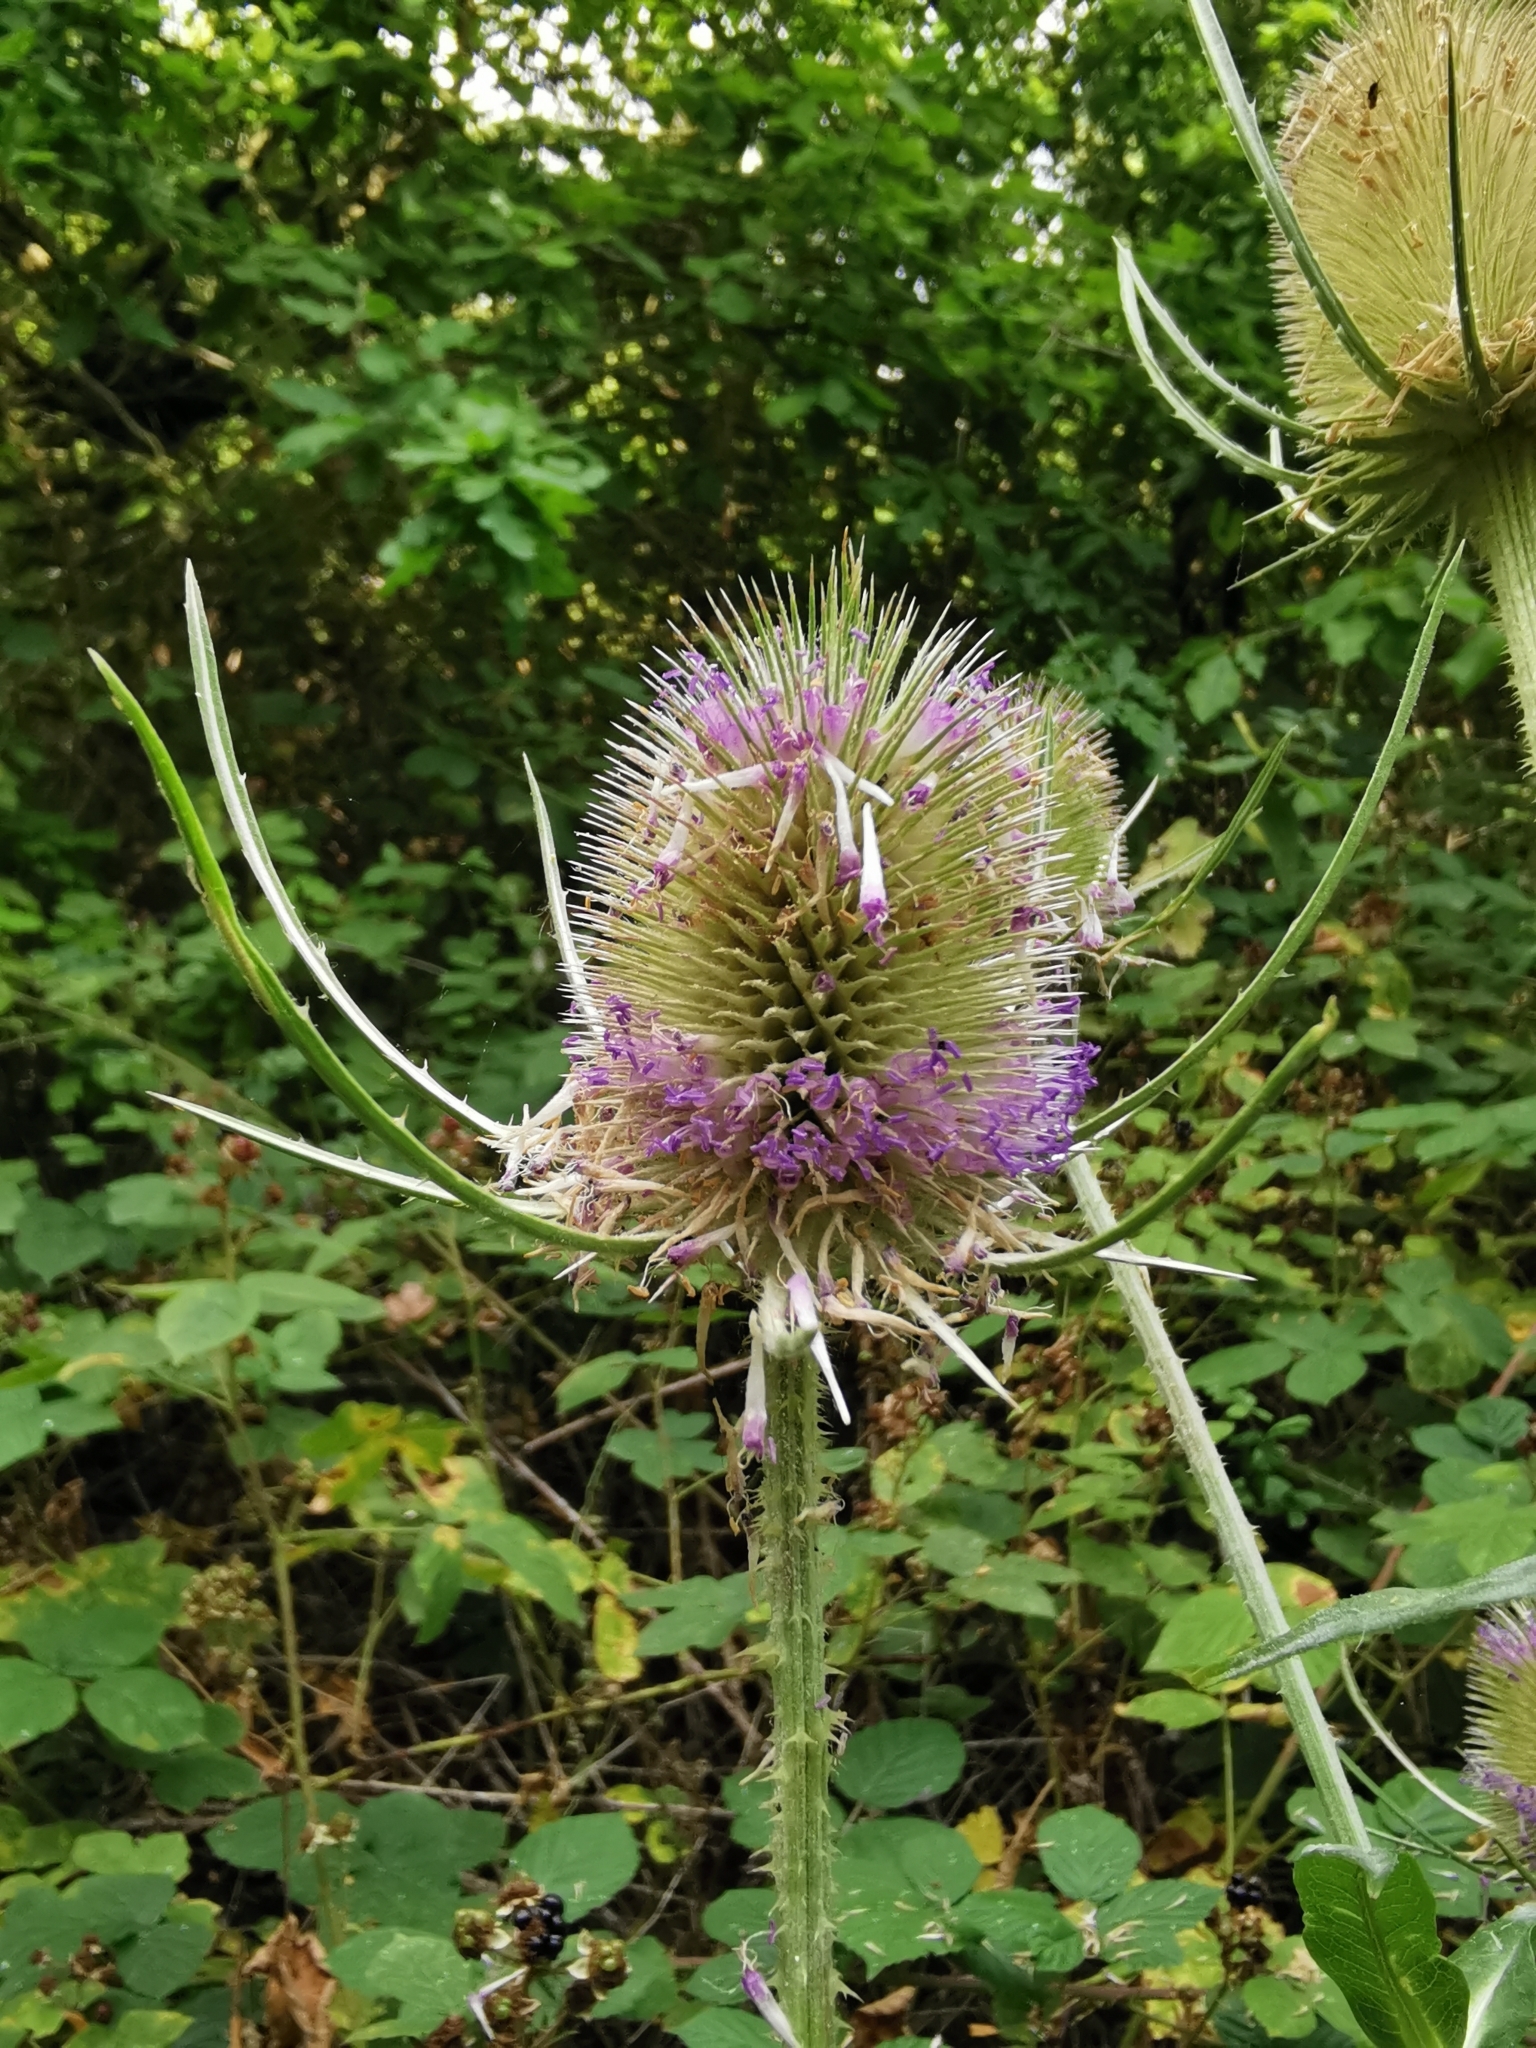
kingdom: Plantae
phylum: Tracheophyta
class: Magnoliopsida
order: Dipsacales
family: Caprifoliaceae
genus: Dipsacus
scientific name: Dipsacus fullonum
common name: Teasel
